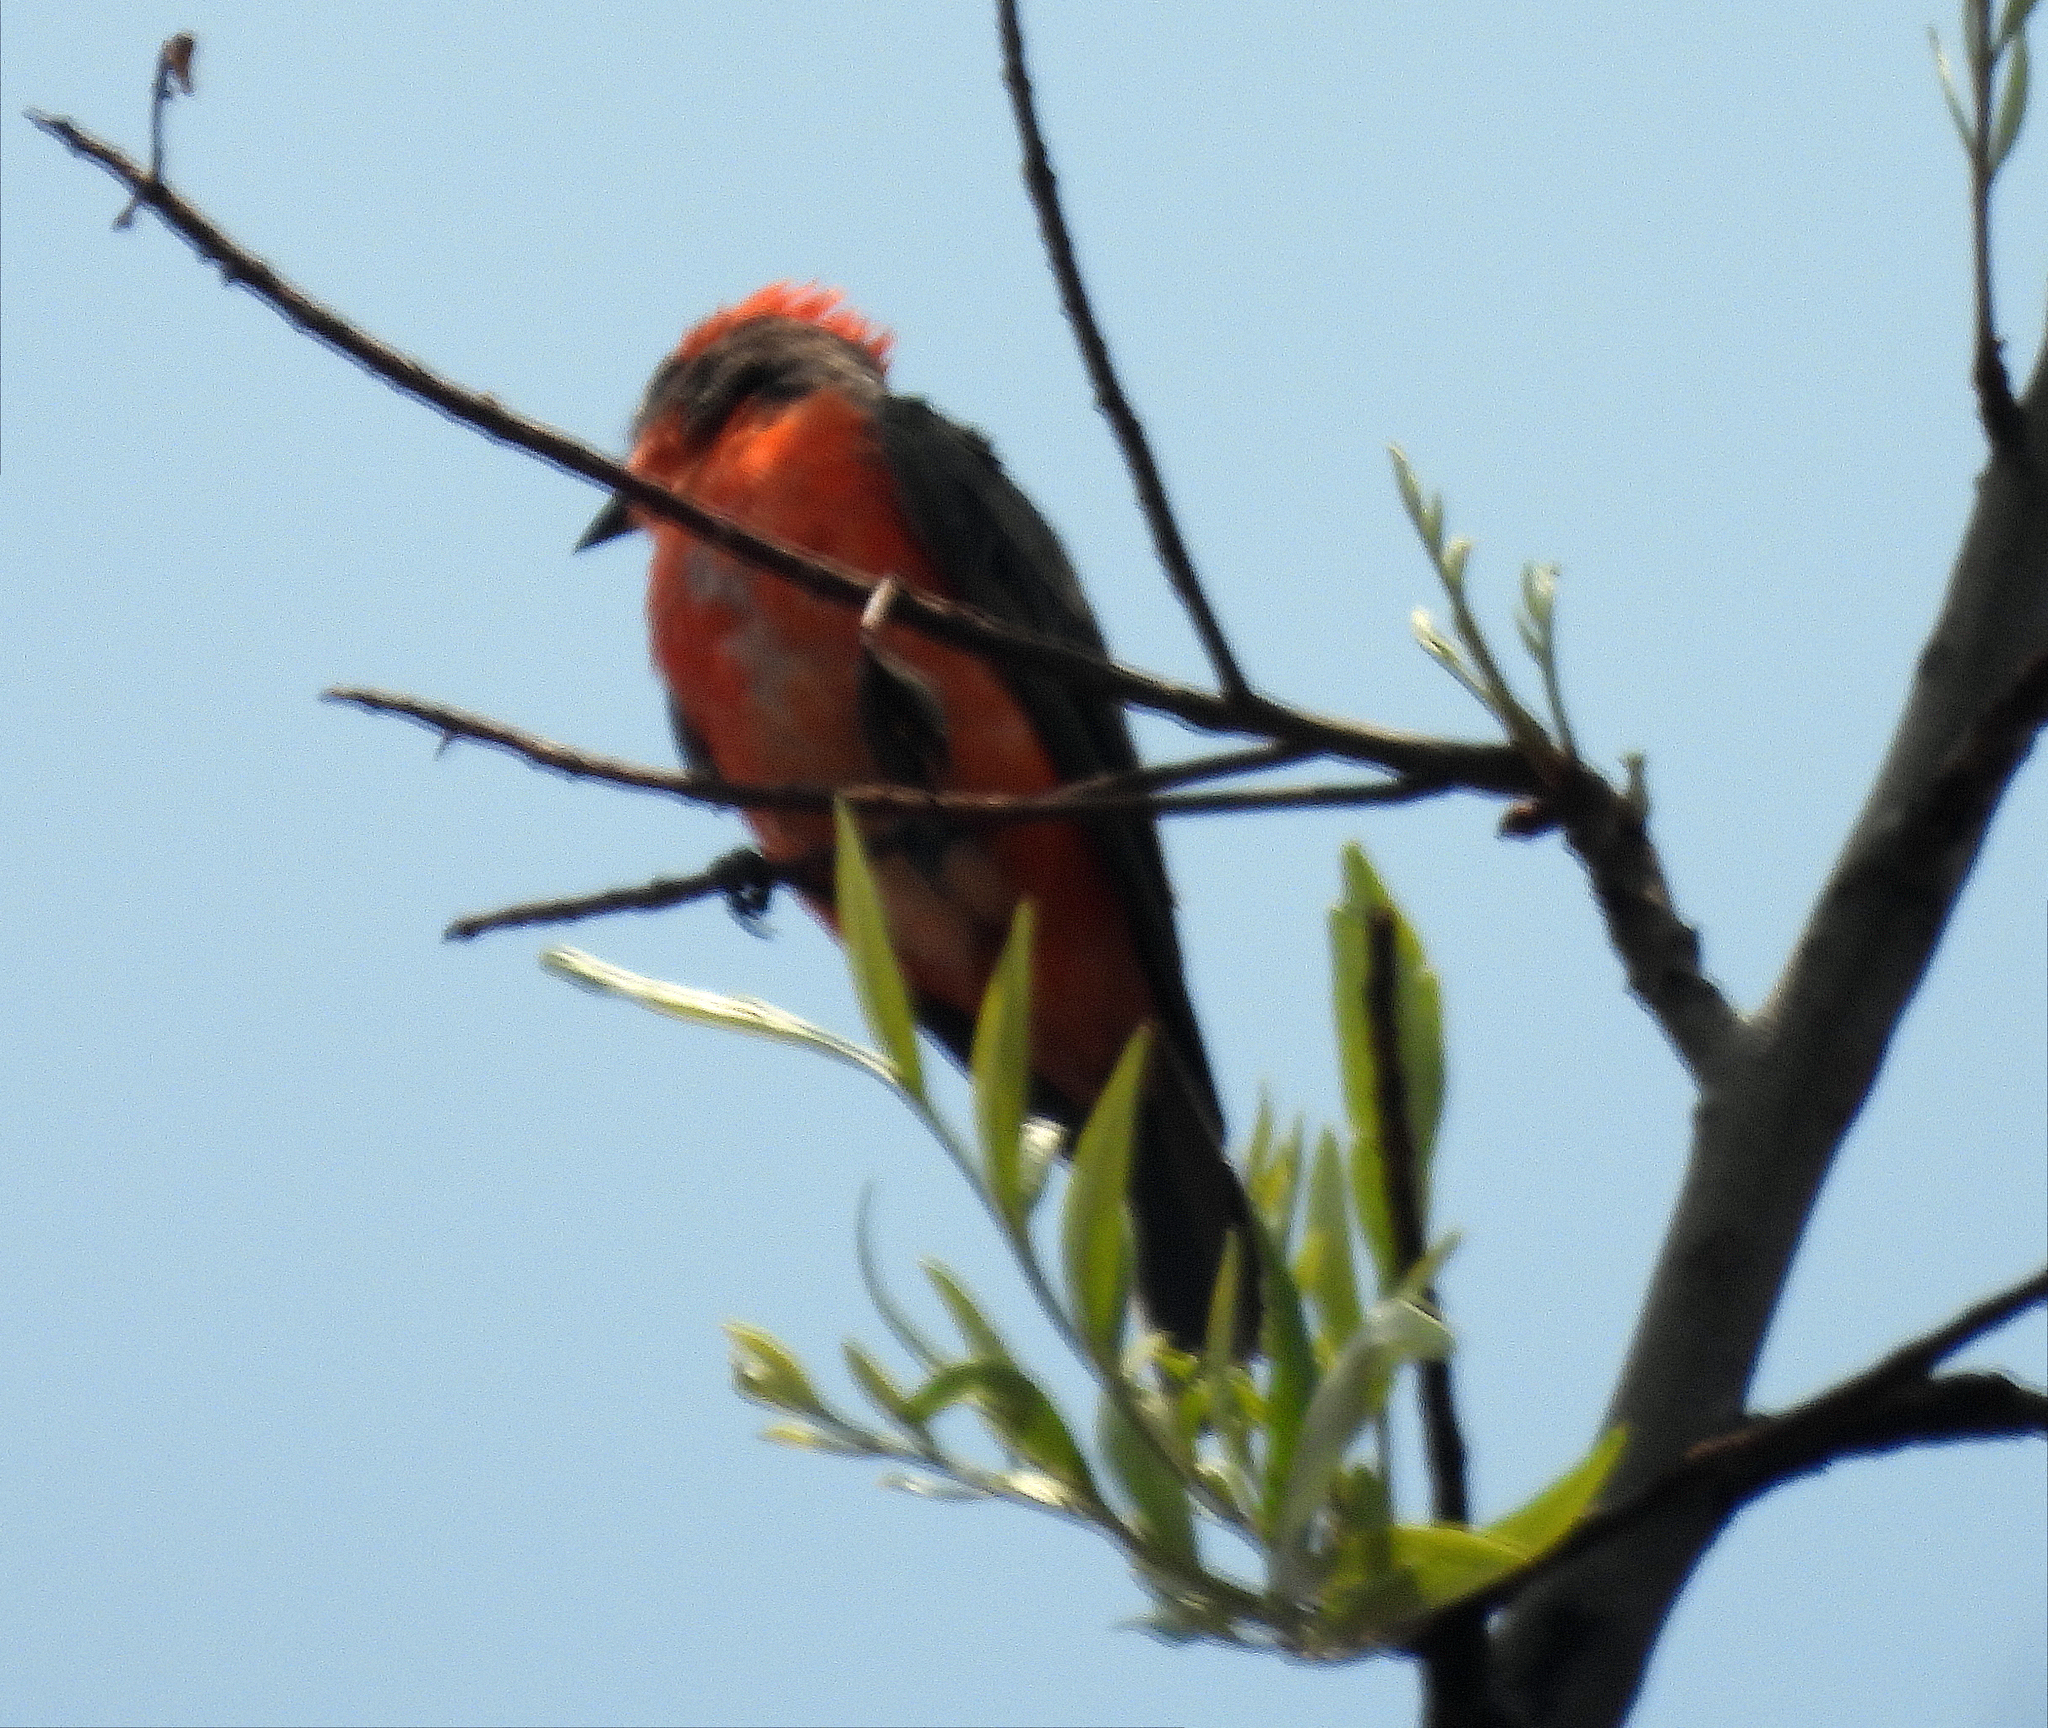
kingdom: Animalia
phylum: Chordata
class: Aves
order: Passeriformes
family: Tyrannidae
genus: Pyrocephalus
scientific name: Pyrocephalus rubinus
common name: Vermilion flycatcher
